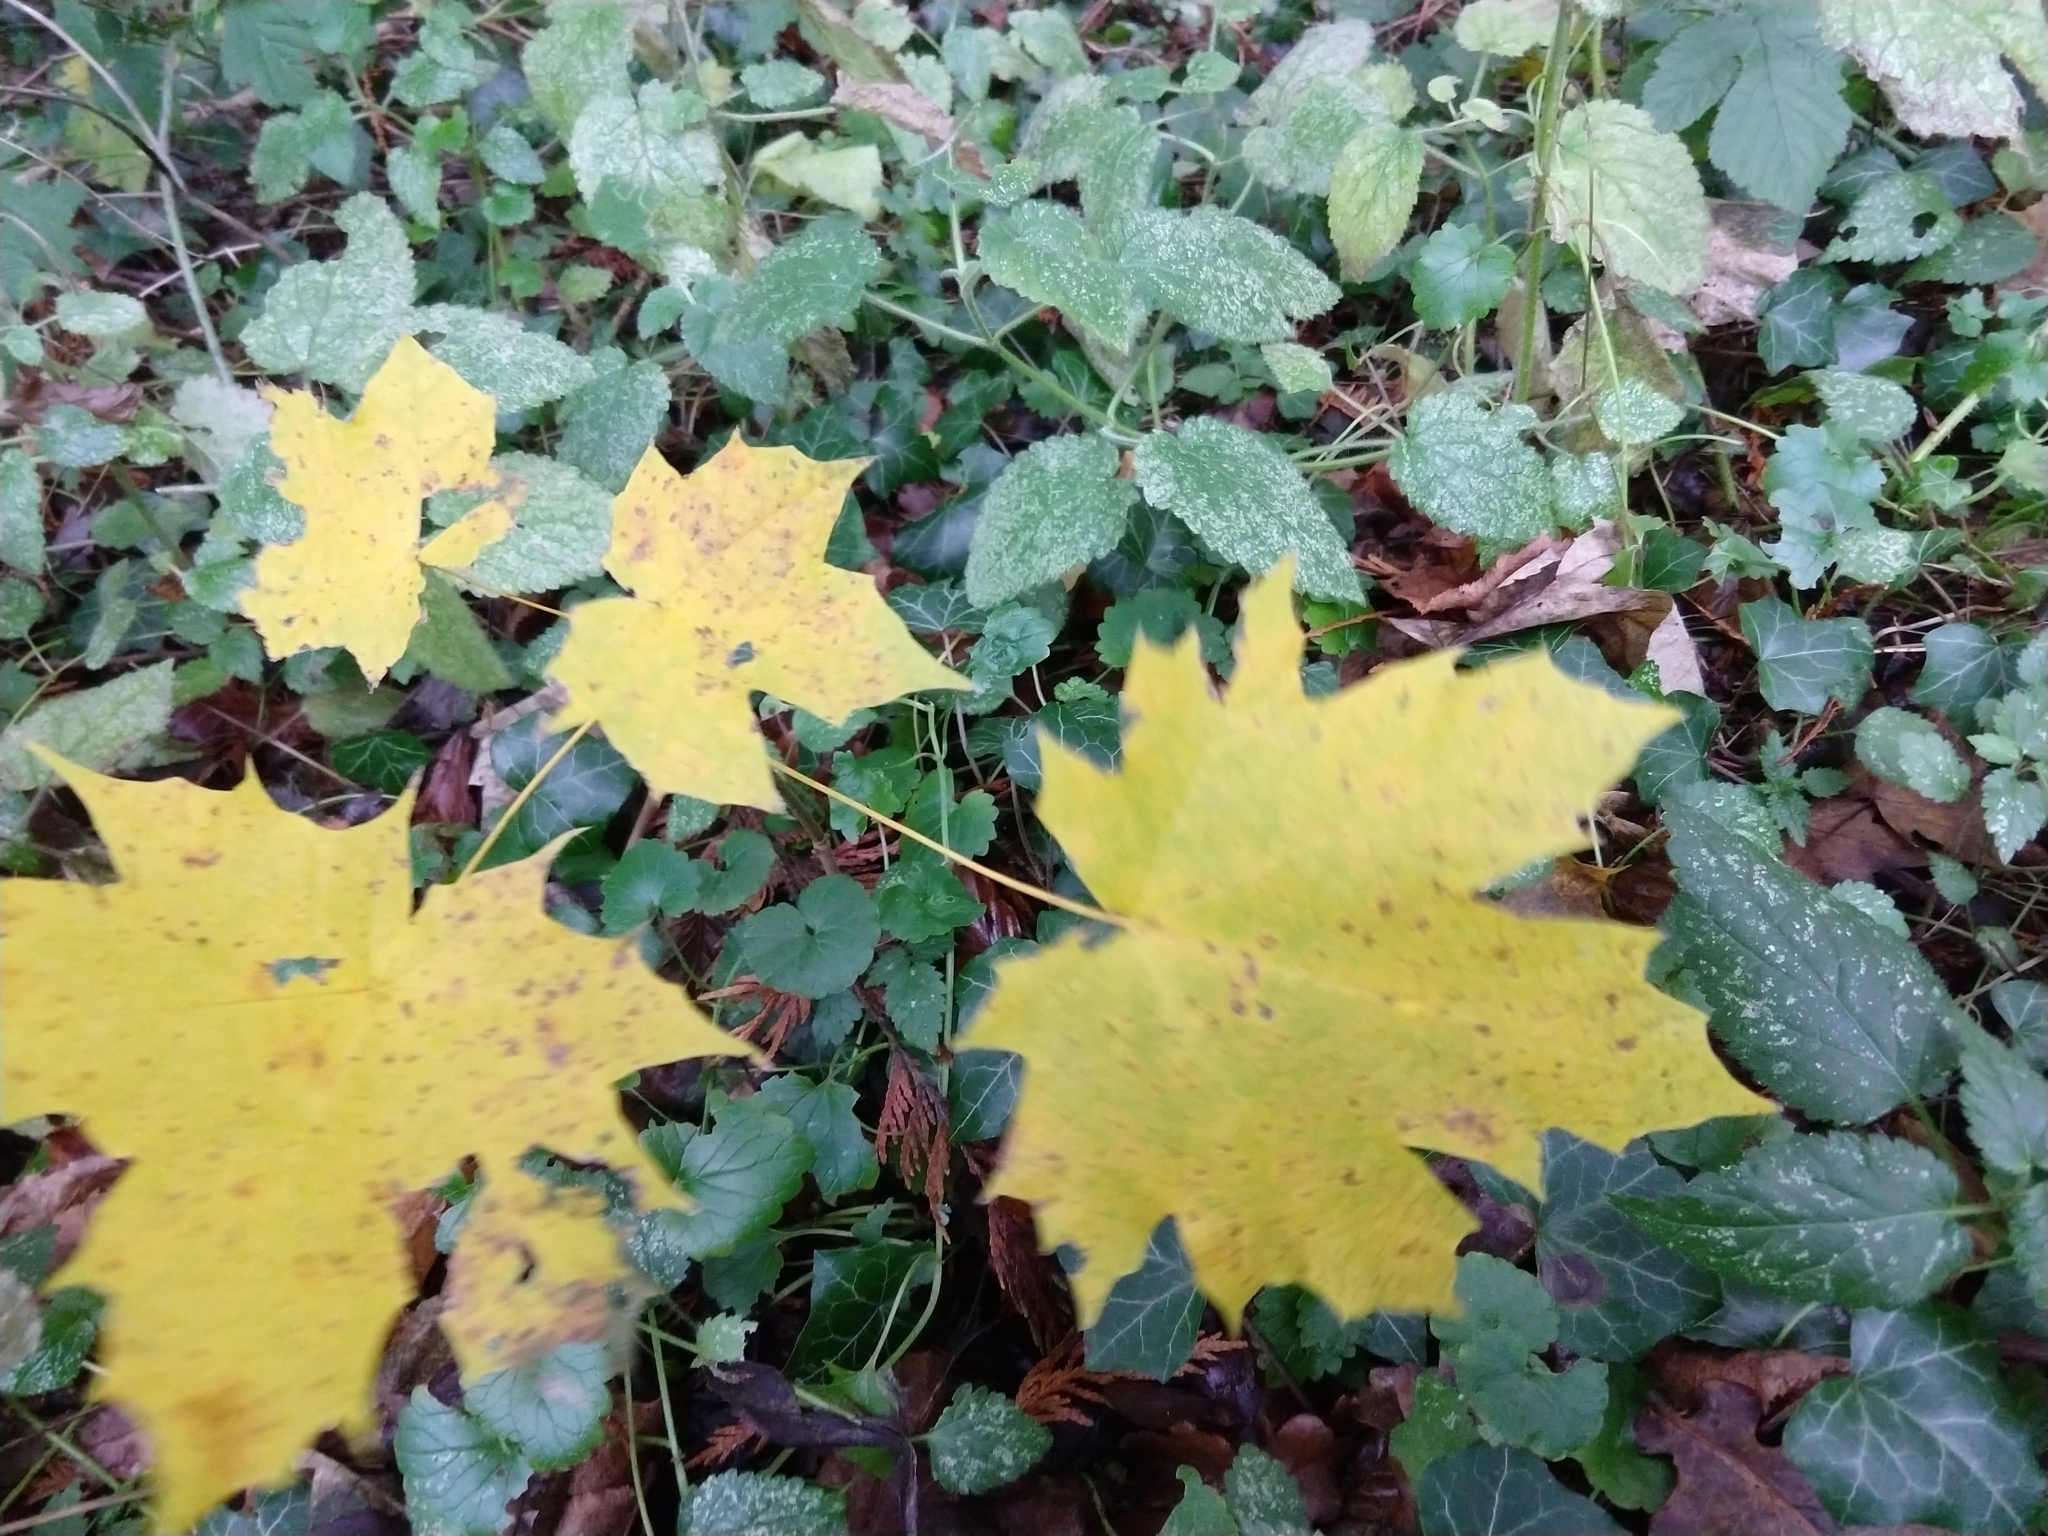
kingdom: Plantae
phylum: Tracheophyta
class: Magnoliopsida
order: Sapindales
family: Sapindaceae
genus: Acer
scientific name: Acer platanoides
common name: Norway maple
